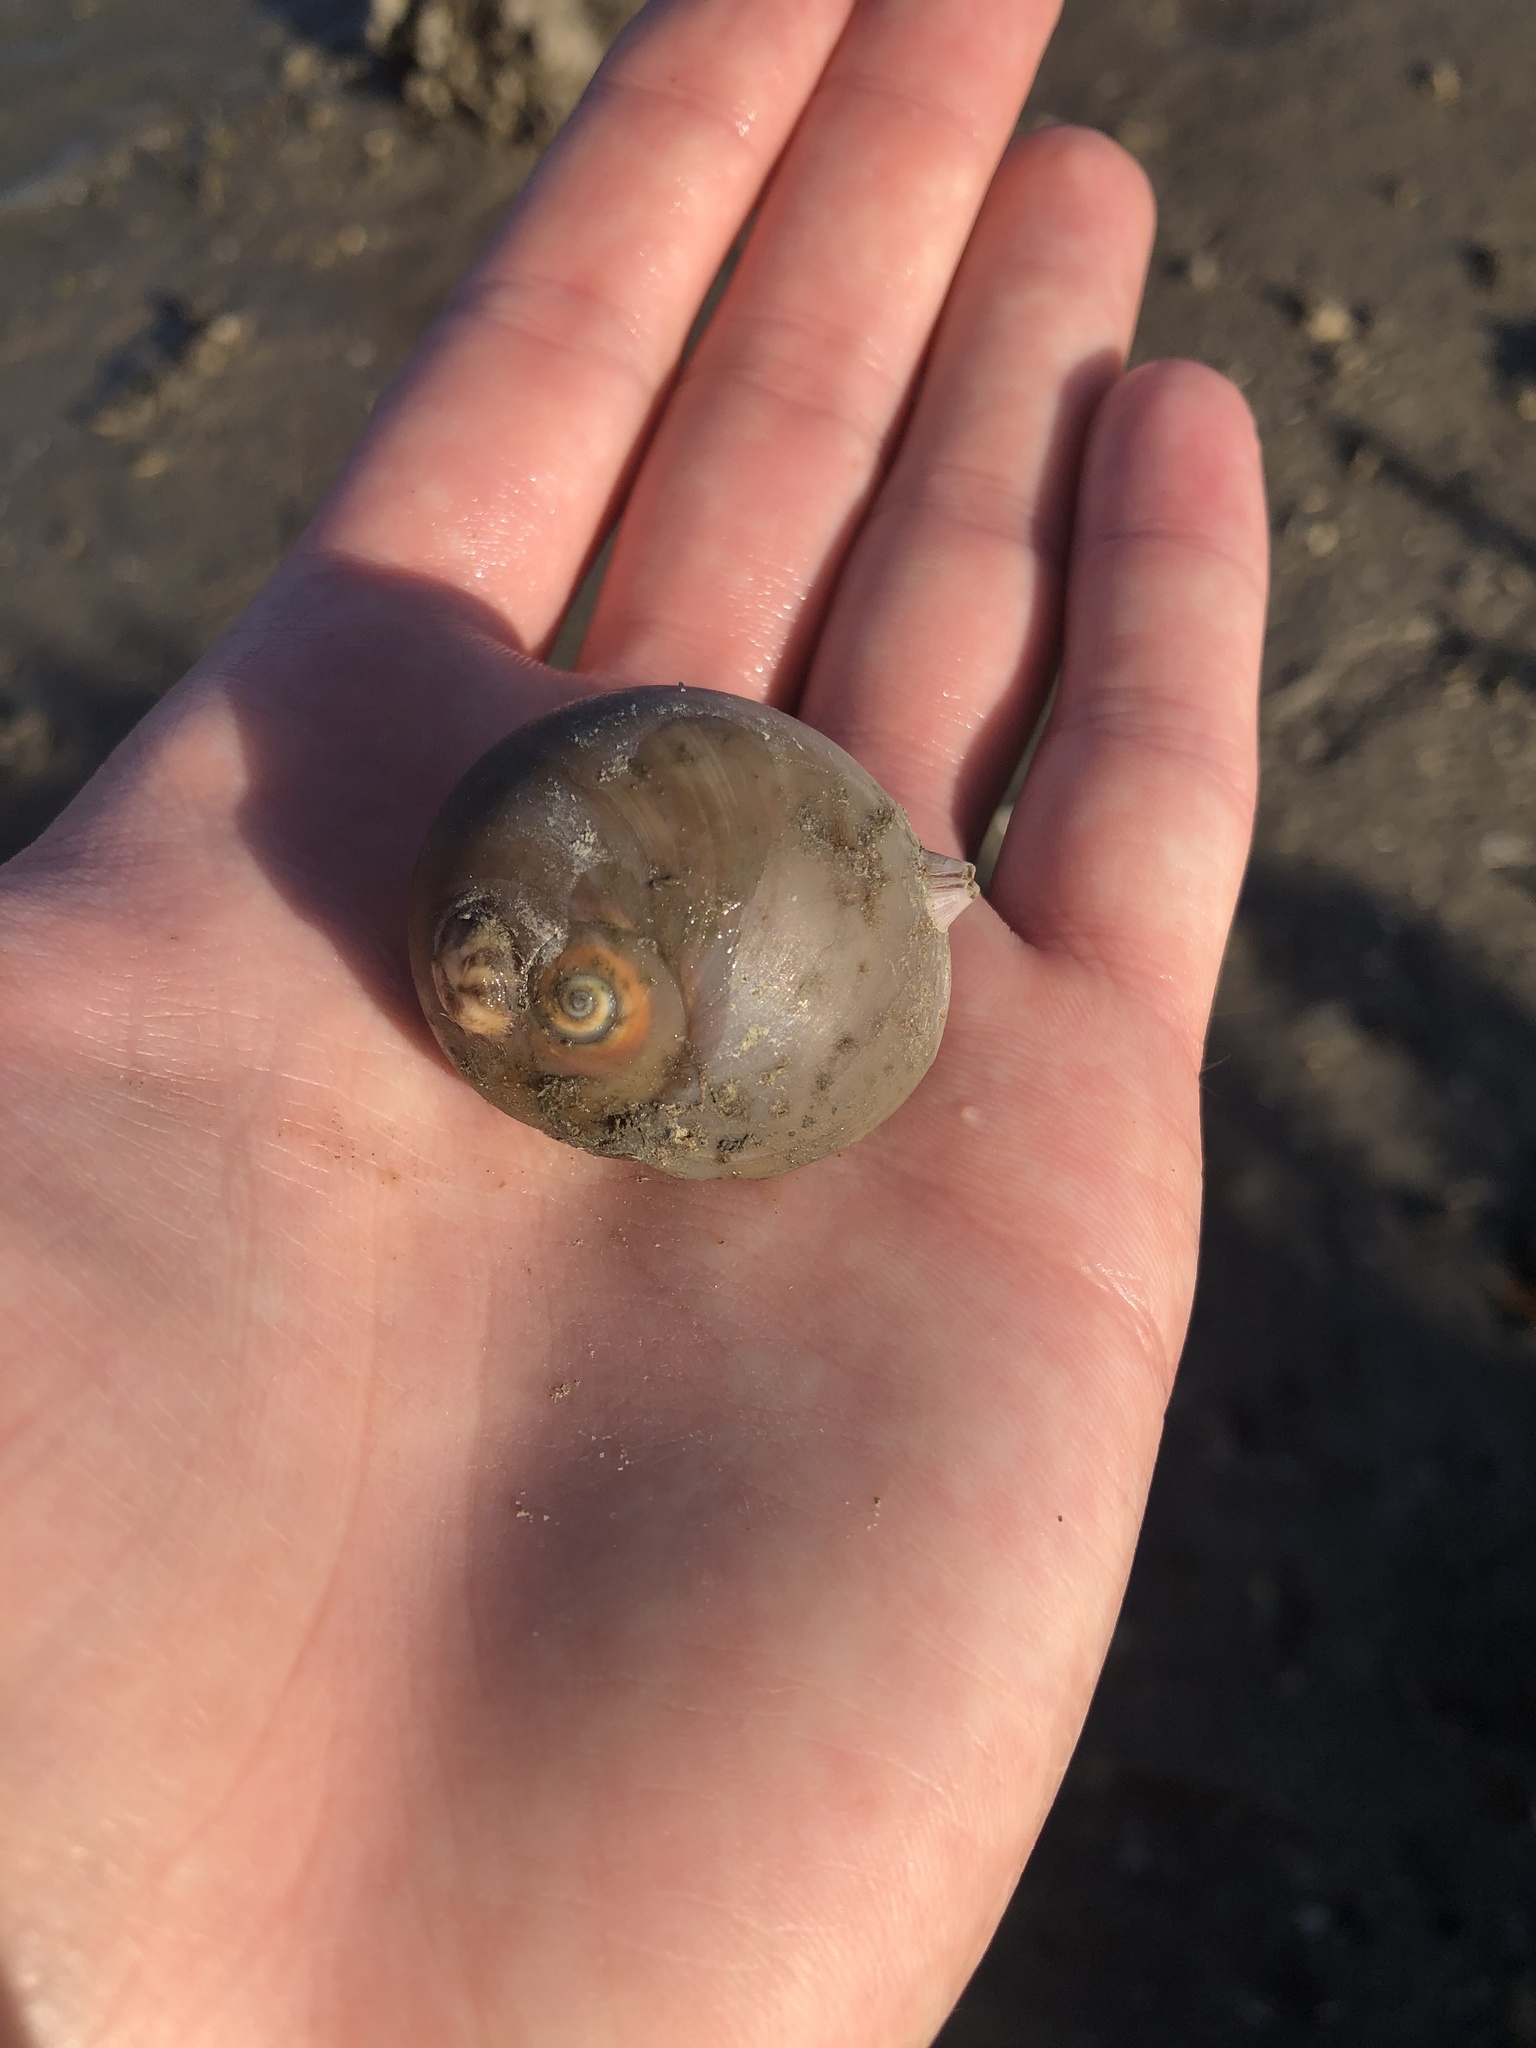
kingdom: Animalia
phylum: Mollusca
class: Gastropoda
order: Littorinimorpha
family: Naticidae
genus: Neverita
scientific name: Neverita duplicata
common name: Lobed moonsnail
